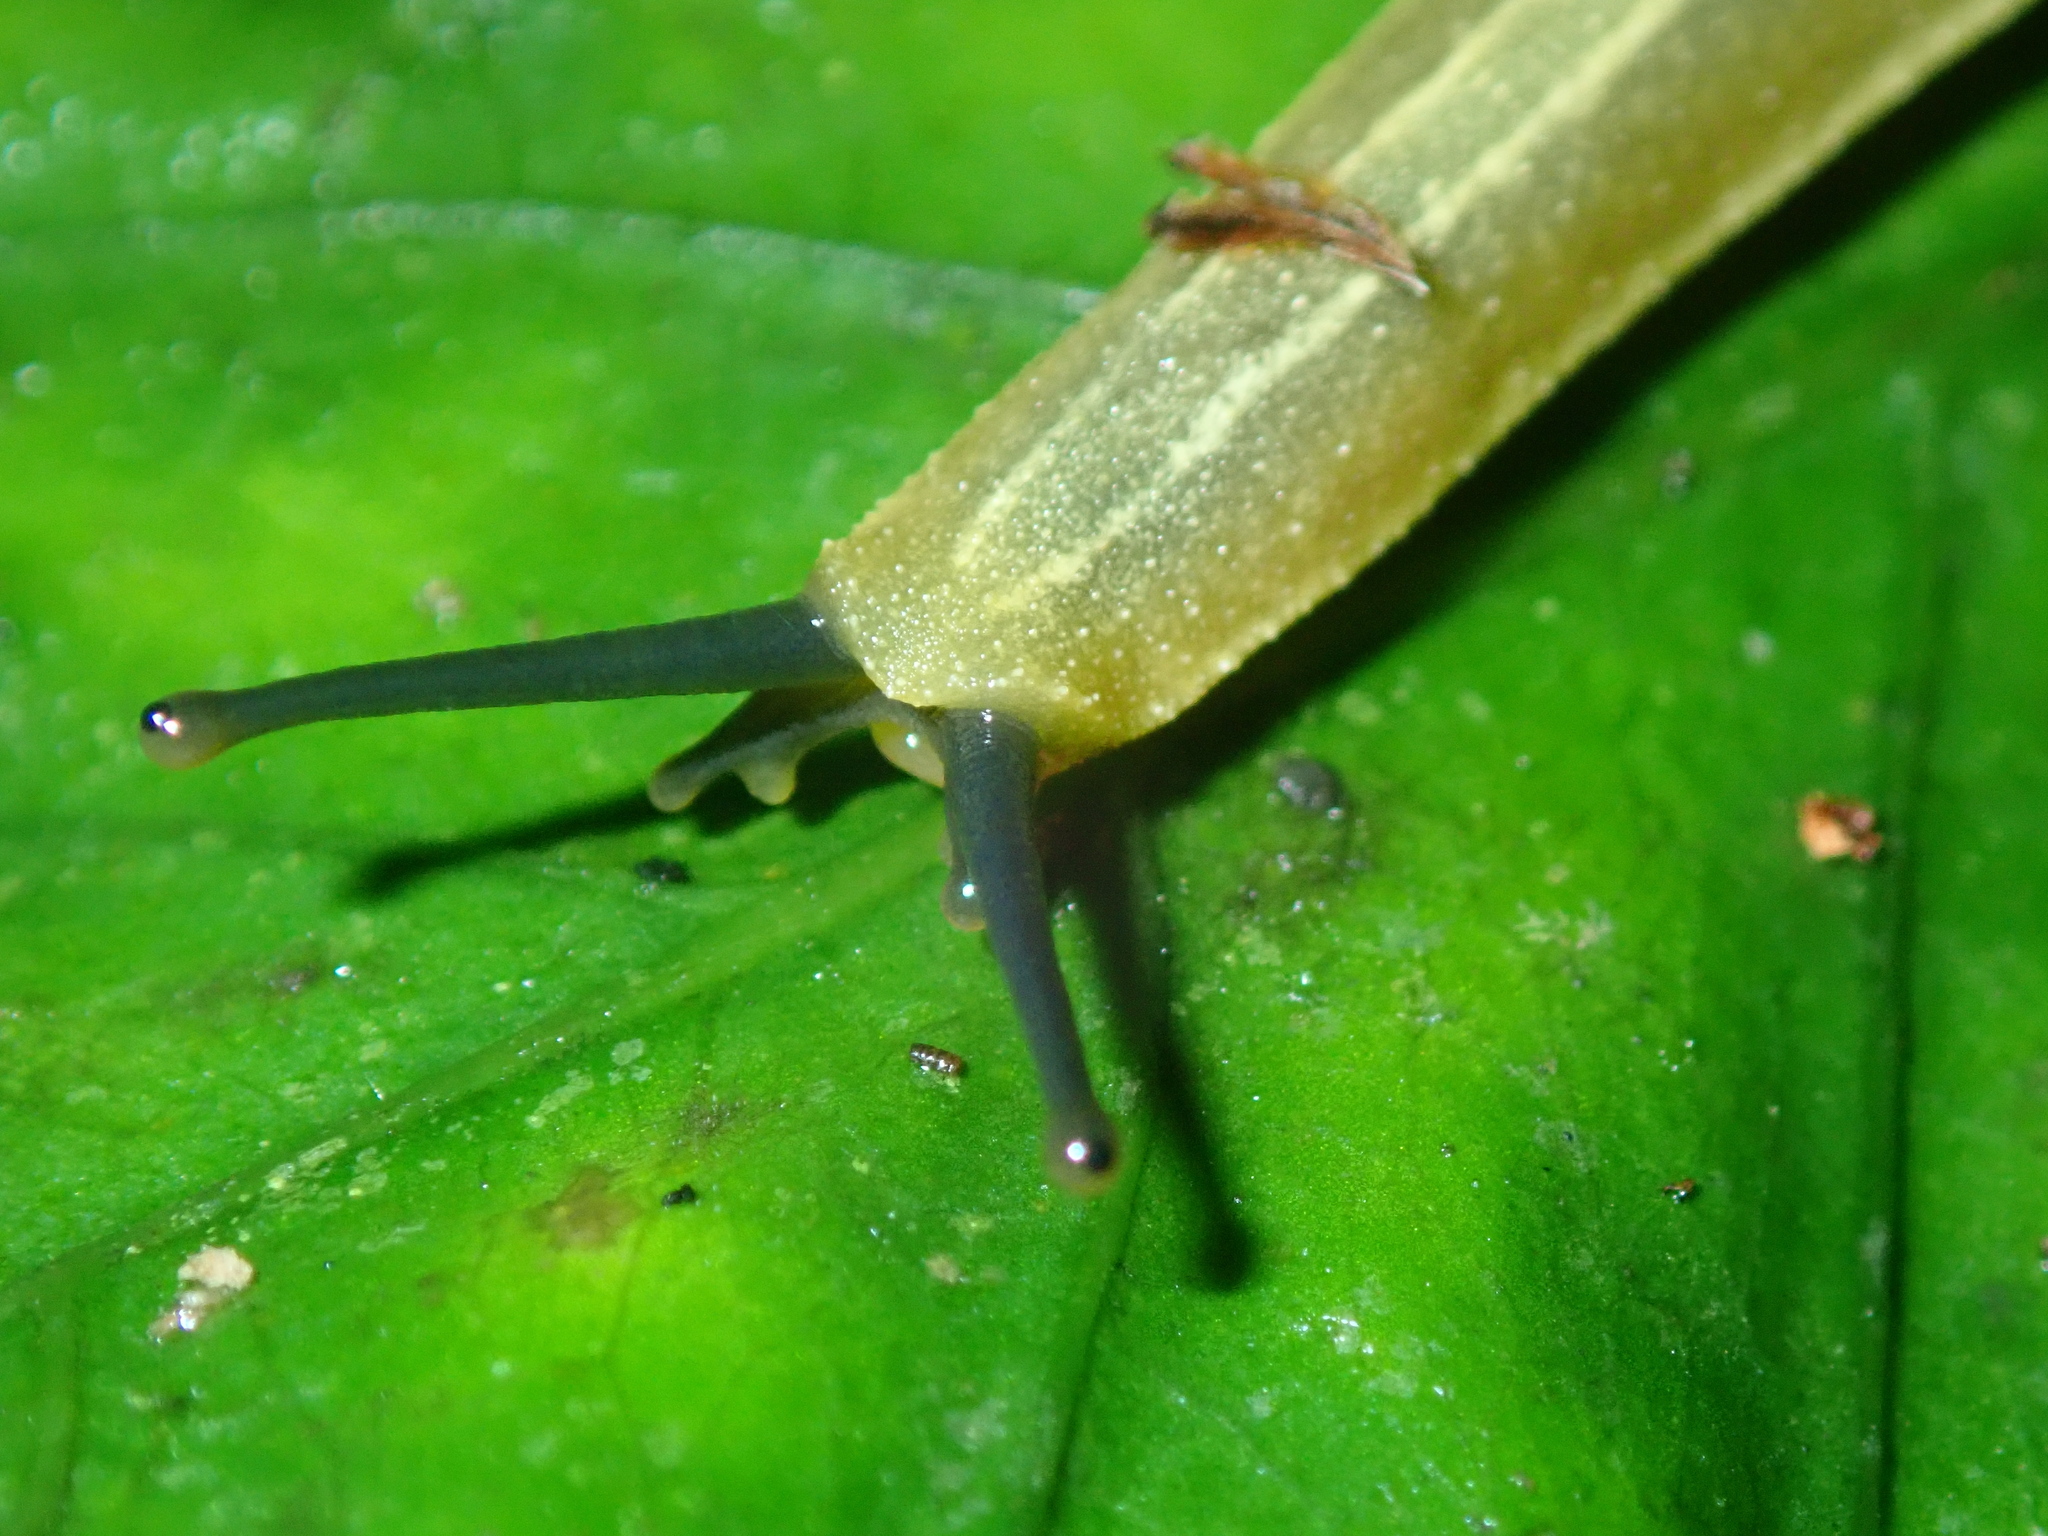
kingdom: Animalia
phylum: Mollusca
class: Gastropoda
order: Systellommatophora
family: Veronicellidae
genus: Vaginulus
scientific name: Vaginulus taunaisii
